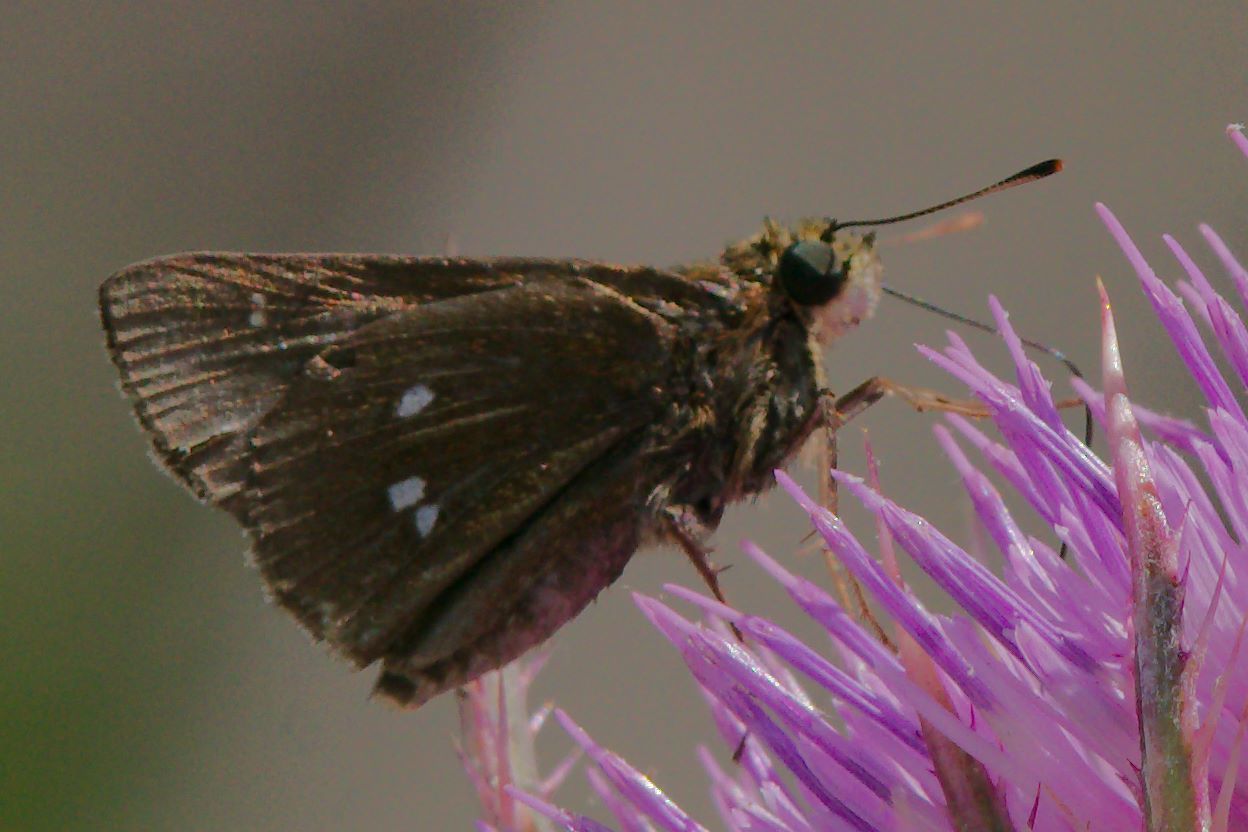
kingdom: Animalia
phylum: Arthropoda
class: Insecta
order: Lepidoptera
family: Hesperiidae
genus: Oligoria
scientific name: Oligoria maculata
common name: Twin-spot skipper
